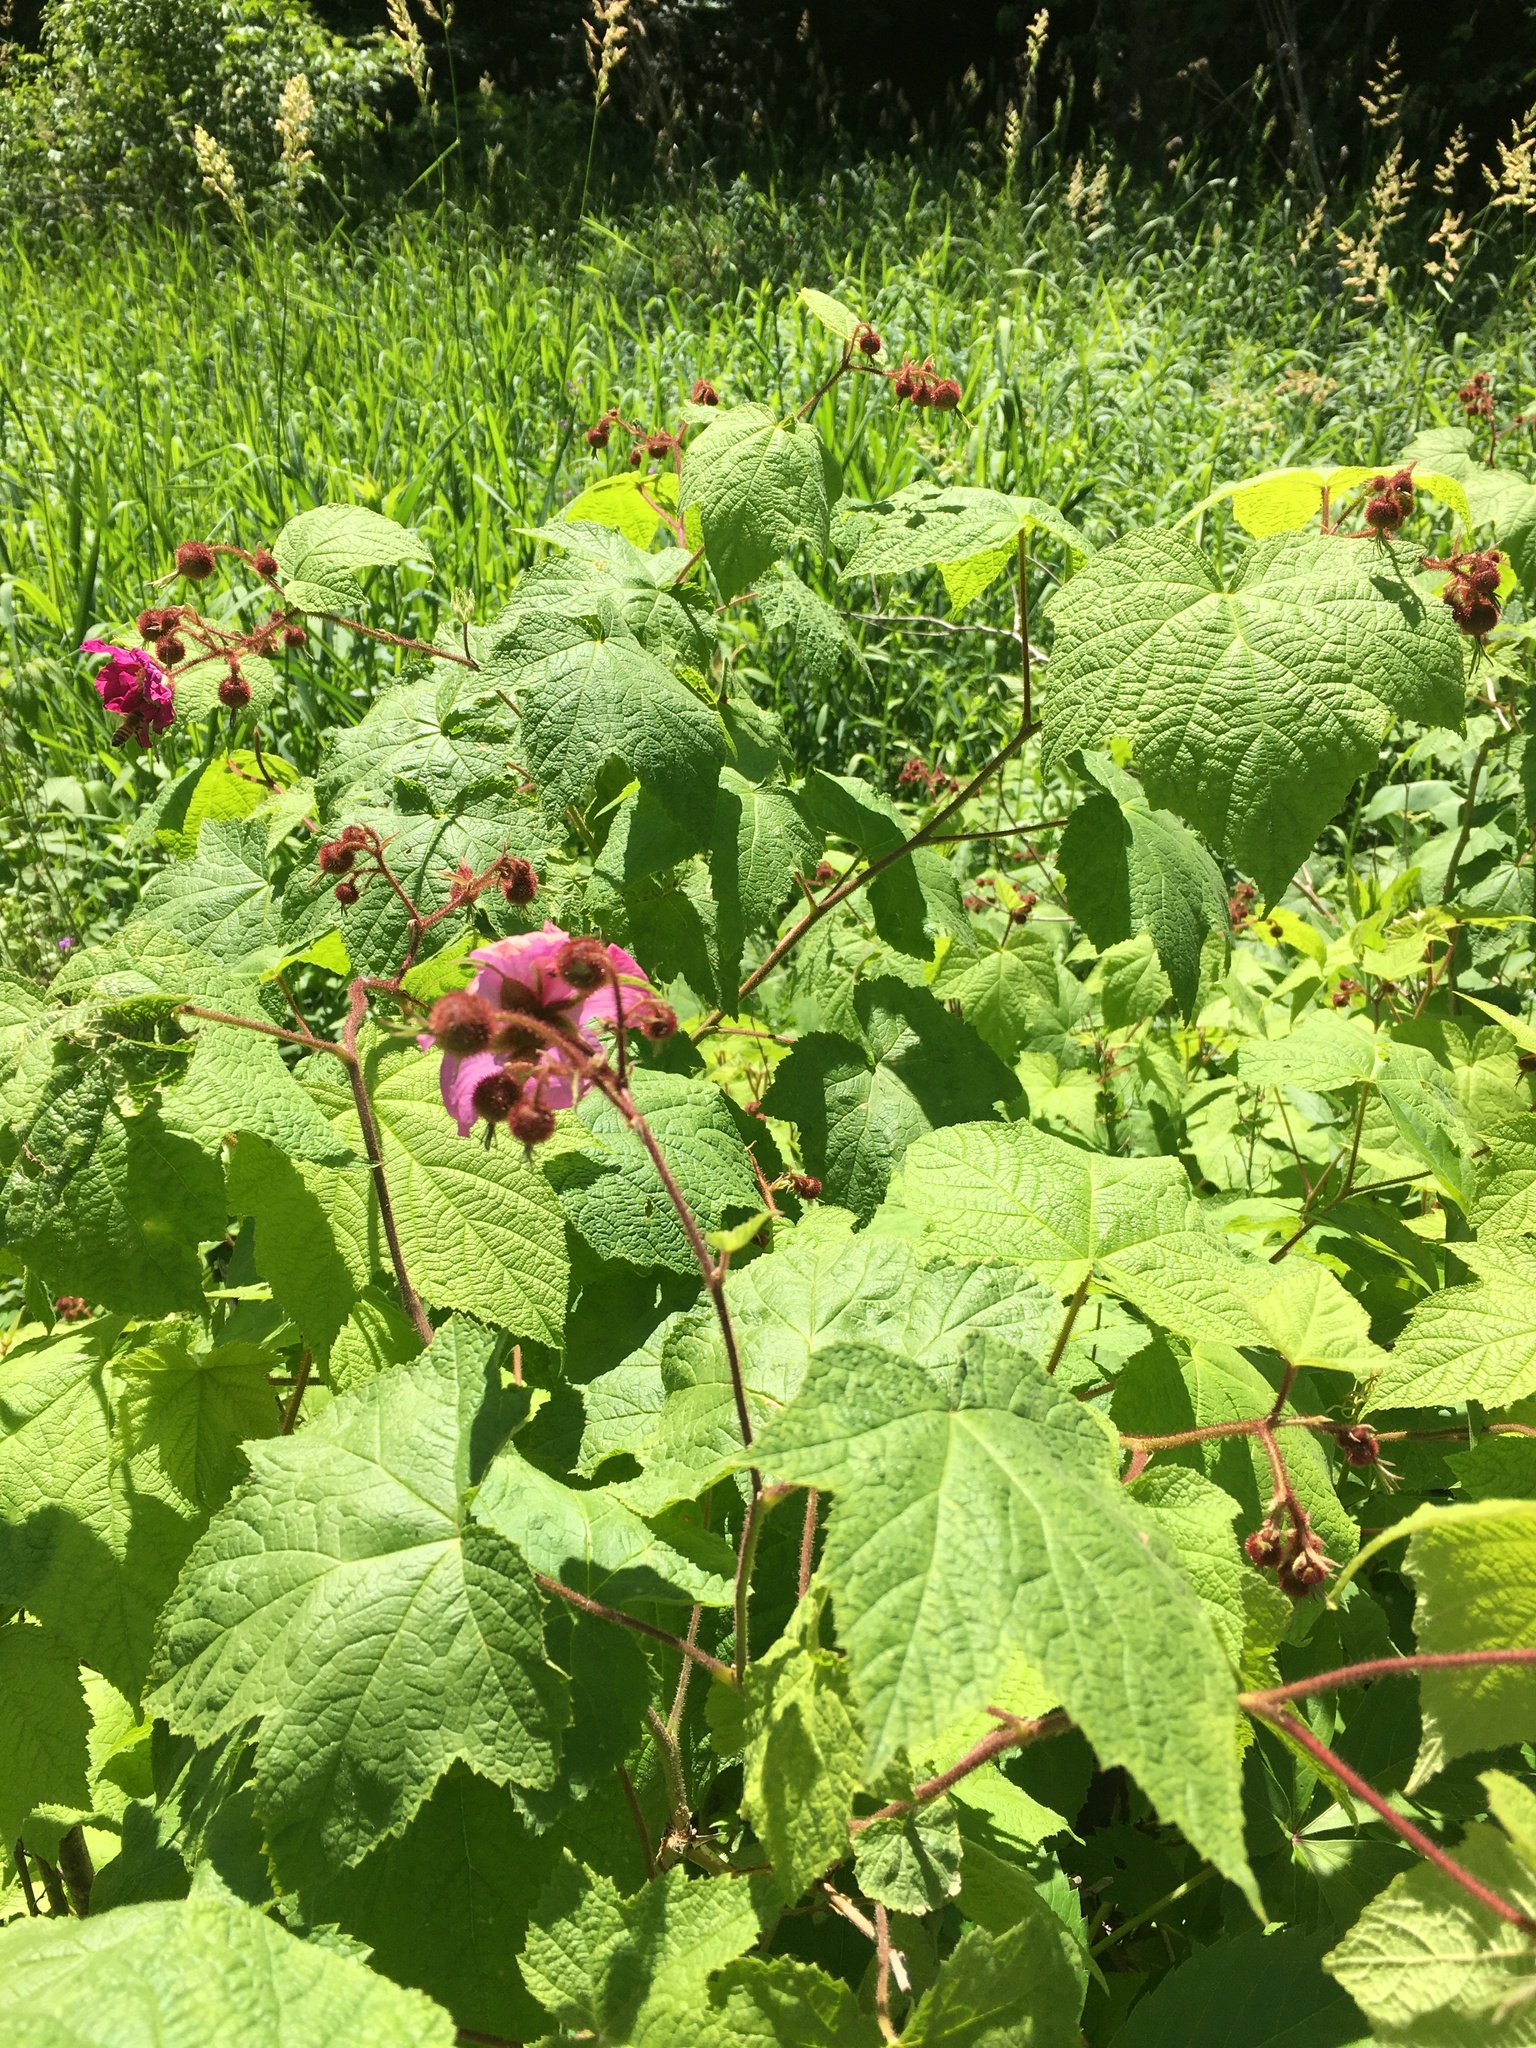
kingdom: Plantae
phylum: Tracheophyta
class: Magnoliopsida
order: Rosales
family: Rosaceae
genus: Rubus
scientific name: Rubus odoratus
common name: Purple-flowered raspberry
